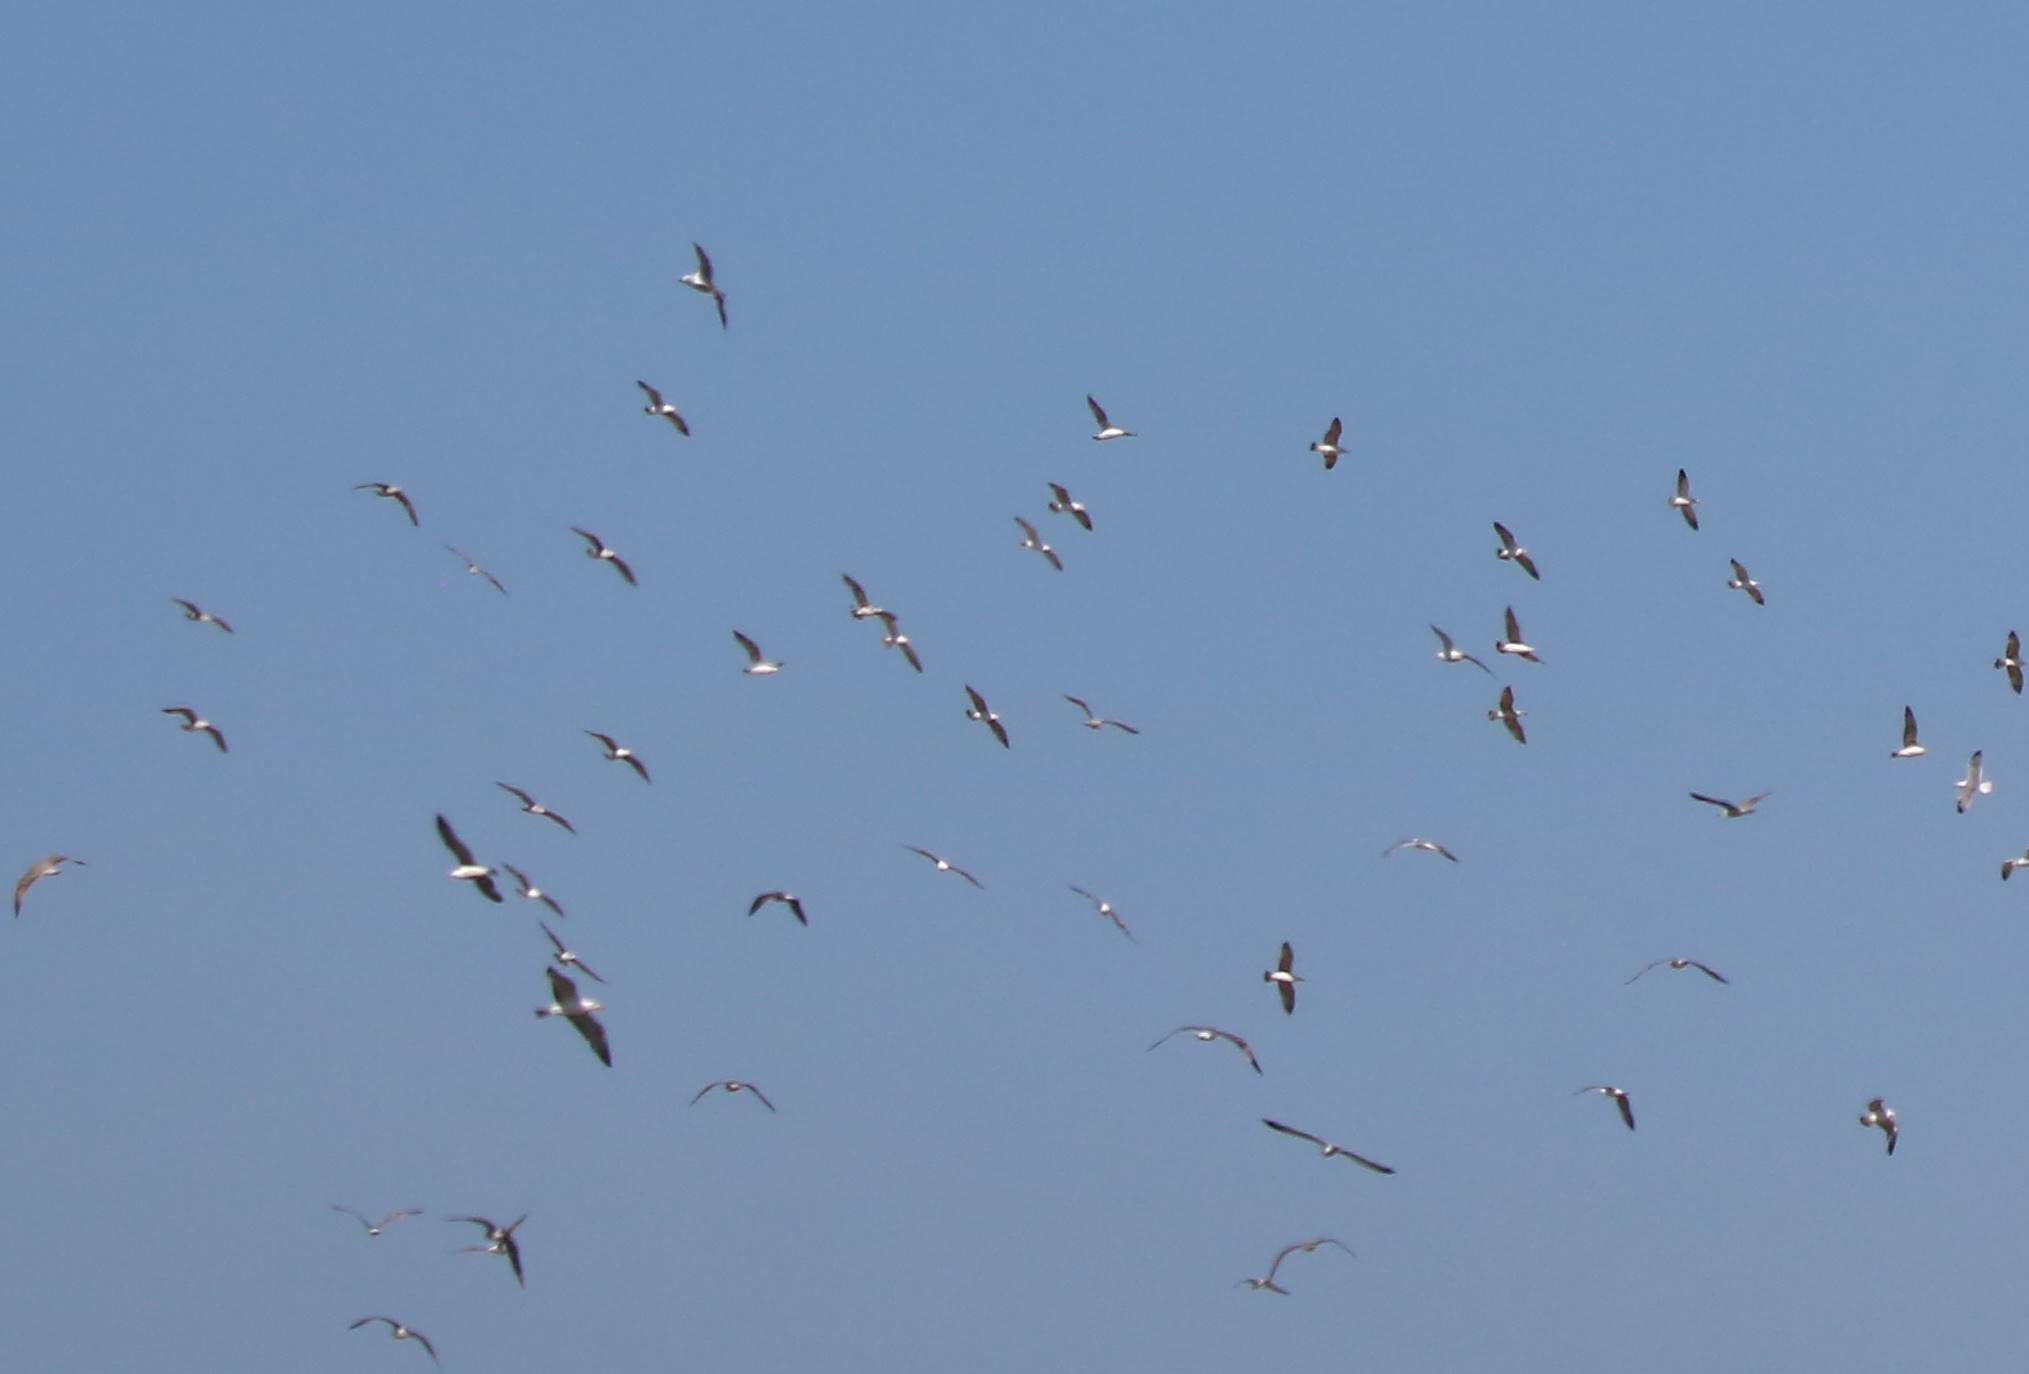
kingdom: Animalia
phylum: Chordata
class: Aves
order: Charadriiformes
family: Recurvirostridae
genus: Recurvirostra
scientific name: Recurvirostra avosetta
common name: Pied avocet
